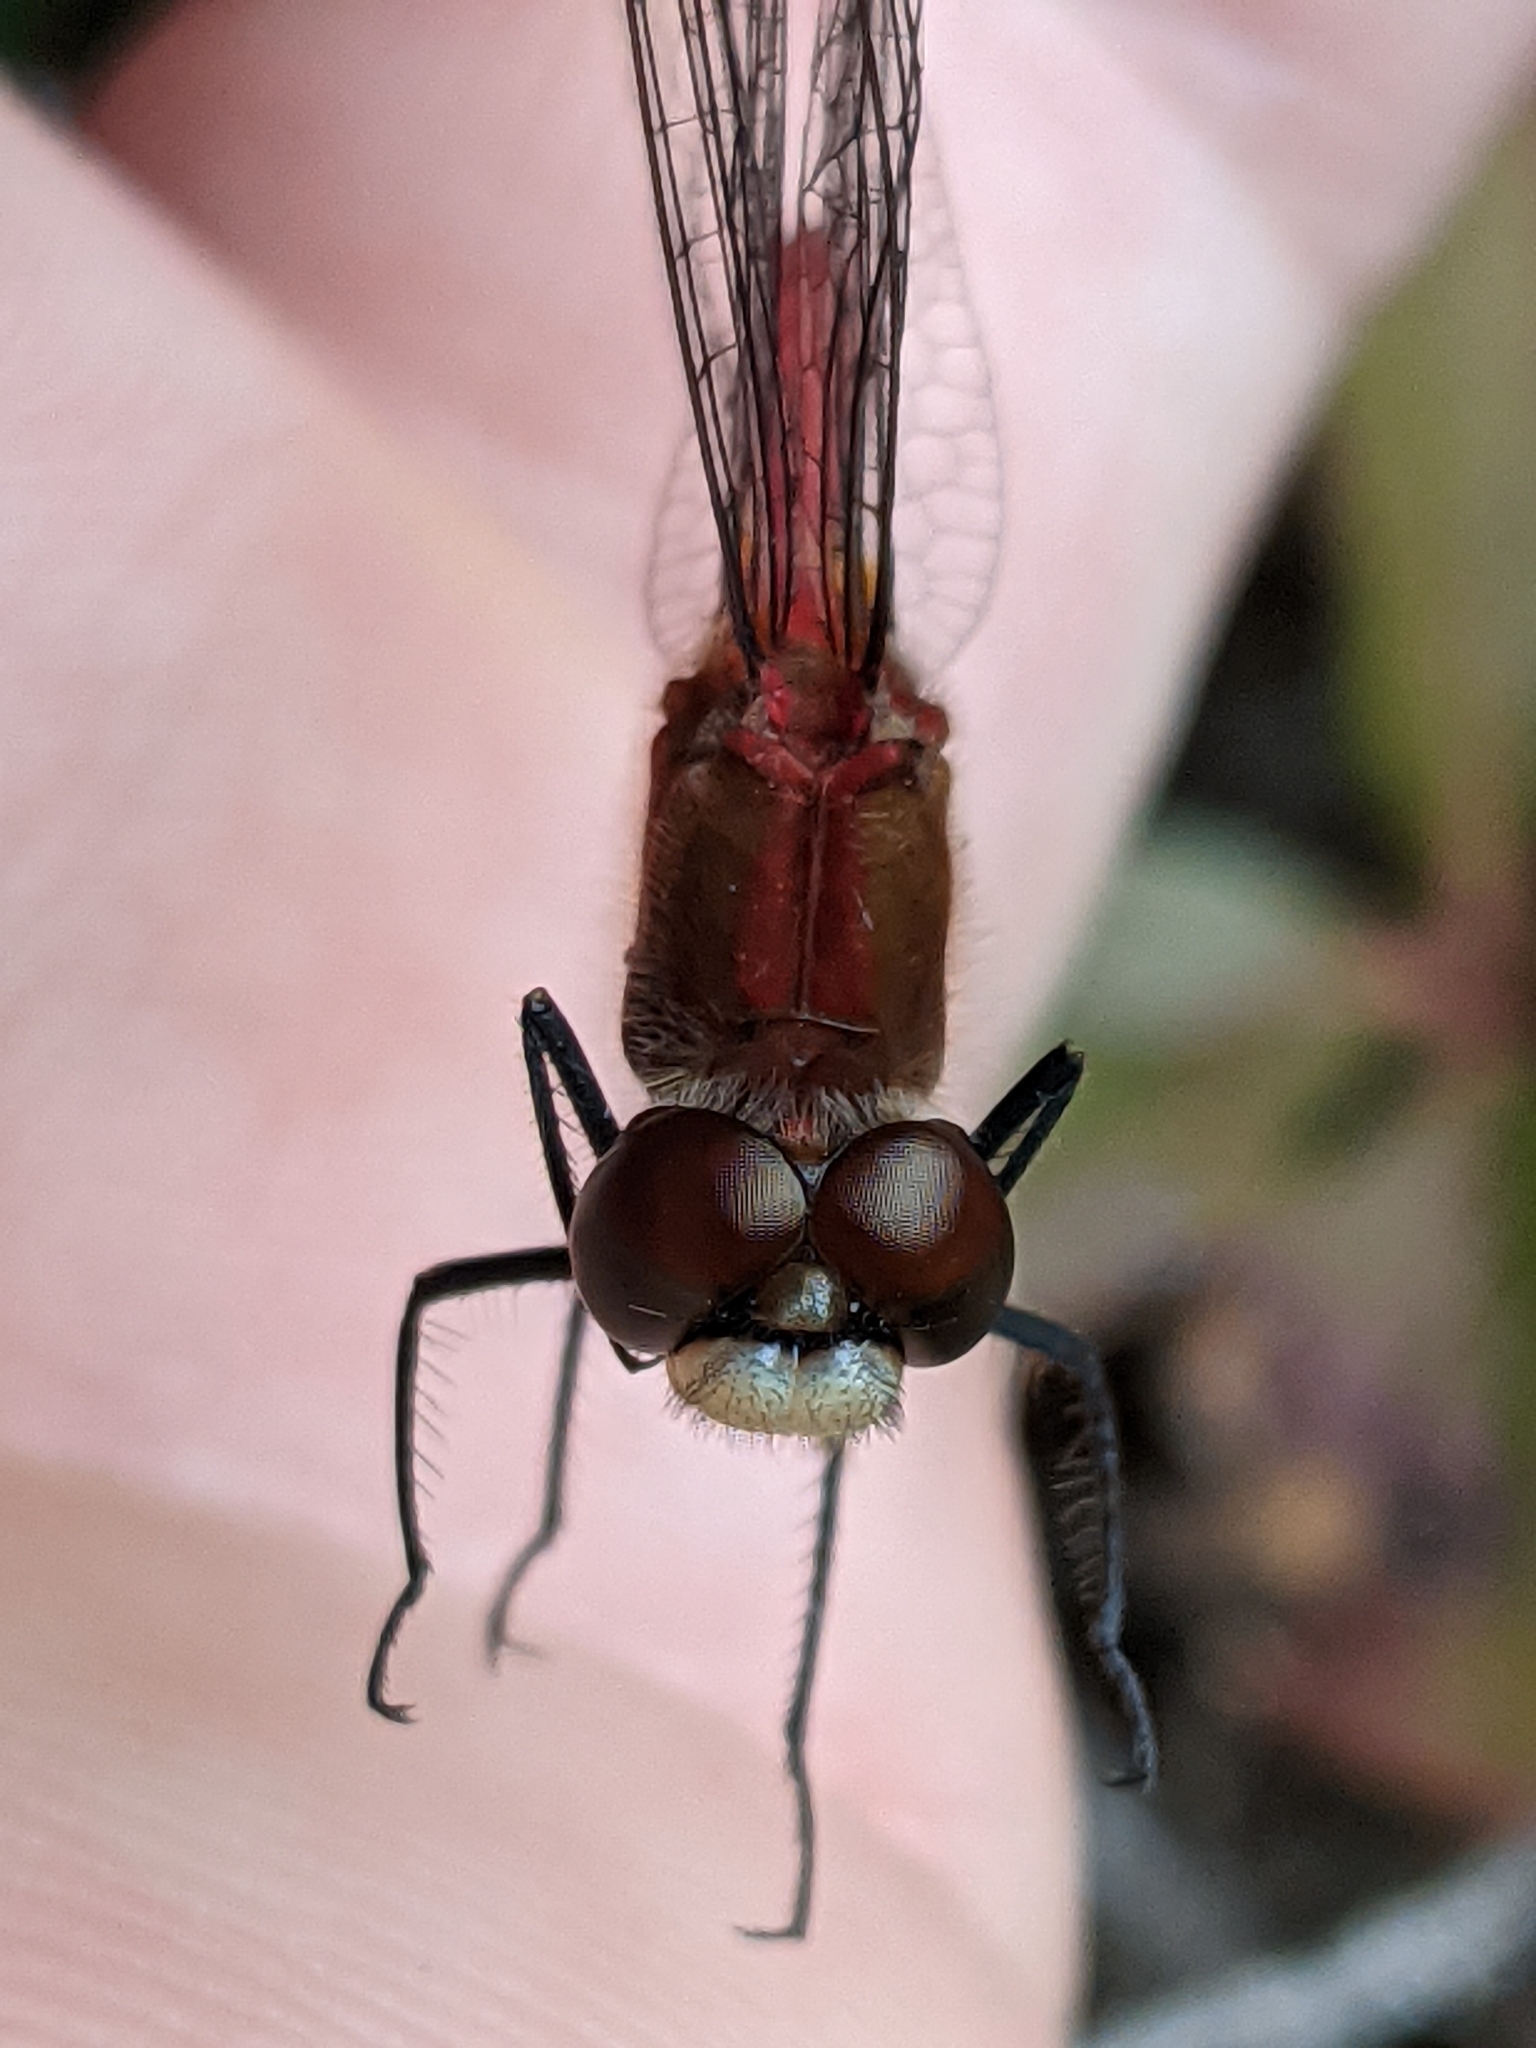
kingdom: Animalia
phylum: Arthropoda
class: Insecta
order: Odonata
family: Libellulidae
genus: Sympetrum
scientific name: Sympetrum obtrusum
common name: White-faced meadowhawk
